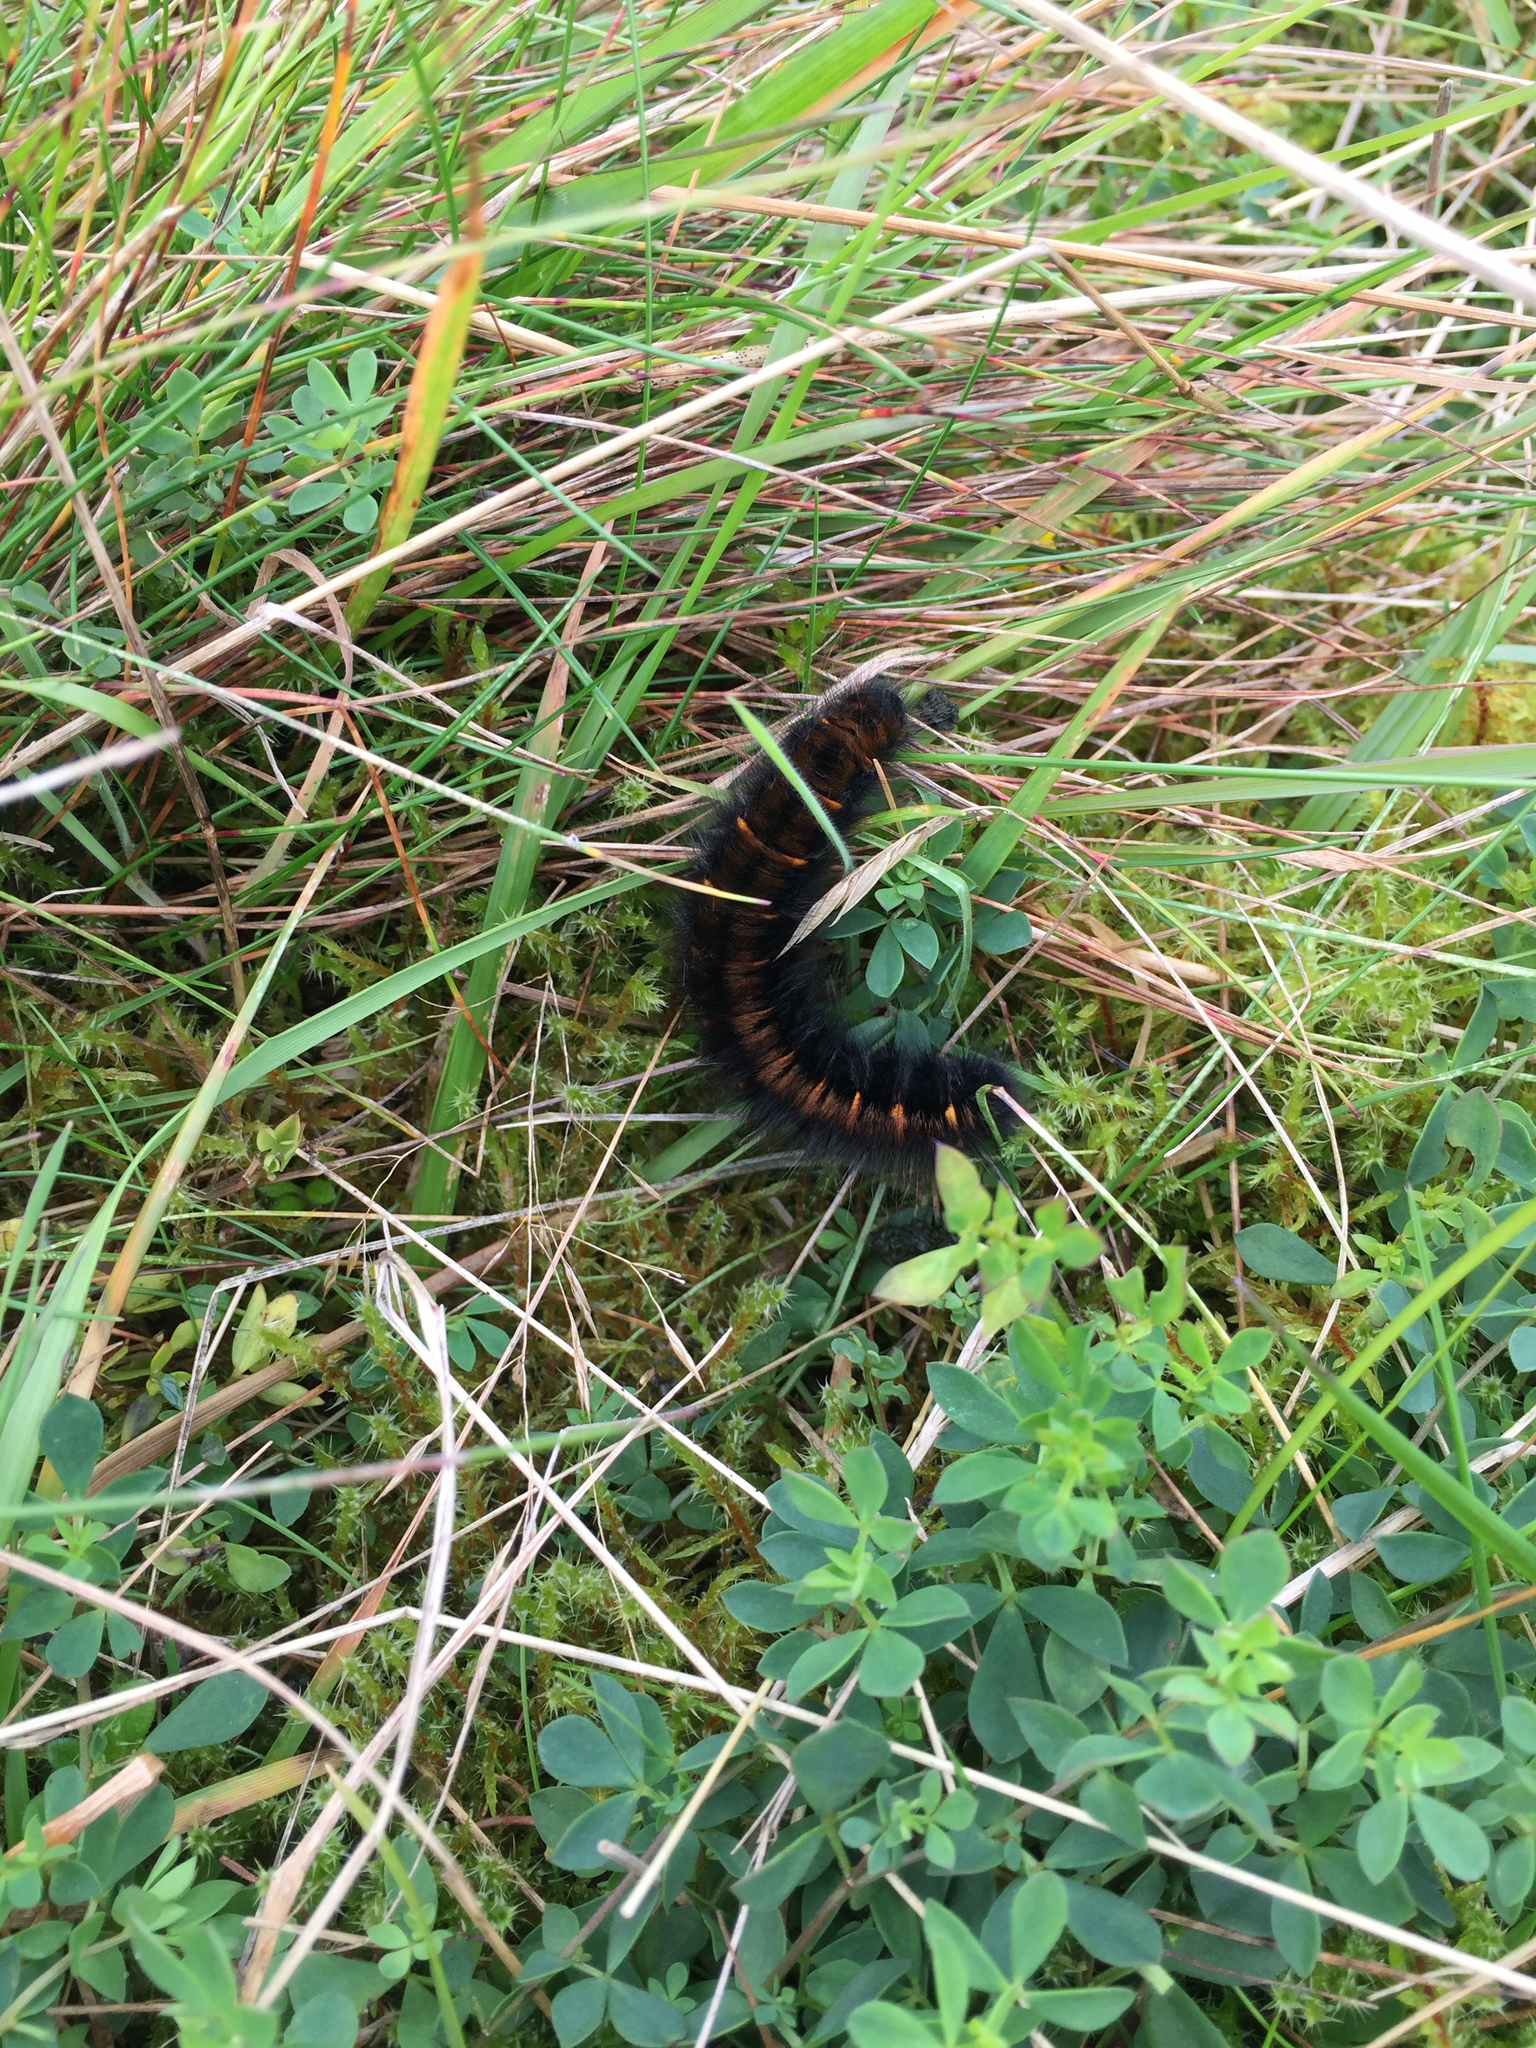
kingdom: Animalia
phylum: Arthropoda
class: Insecta
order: Lepidoptera
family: Lasiocampidae
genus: Macrothylacia
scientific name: Macrothylacia rubi
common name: Fox moth
